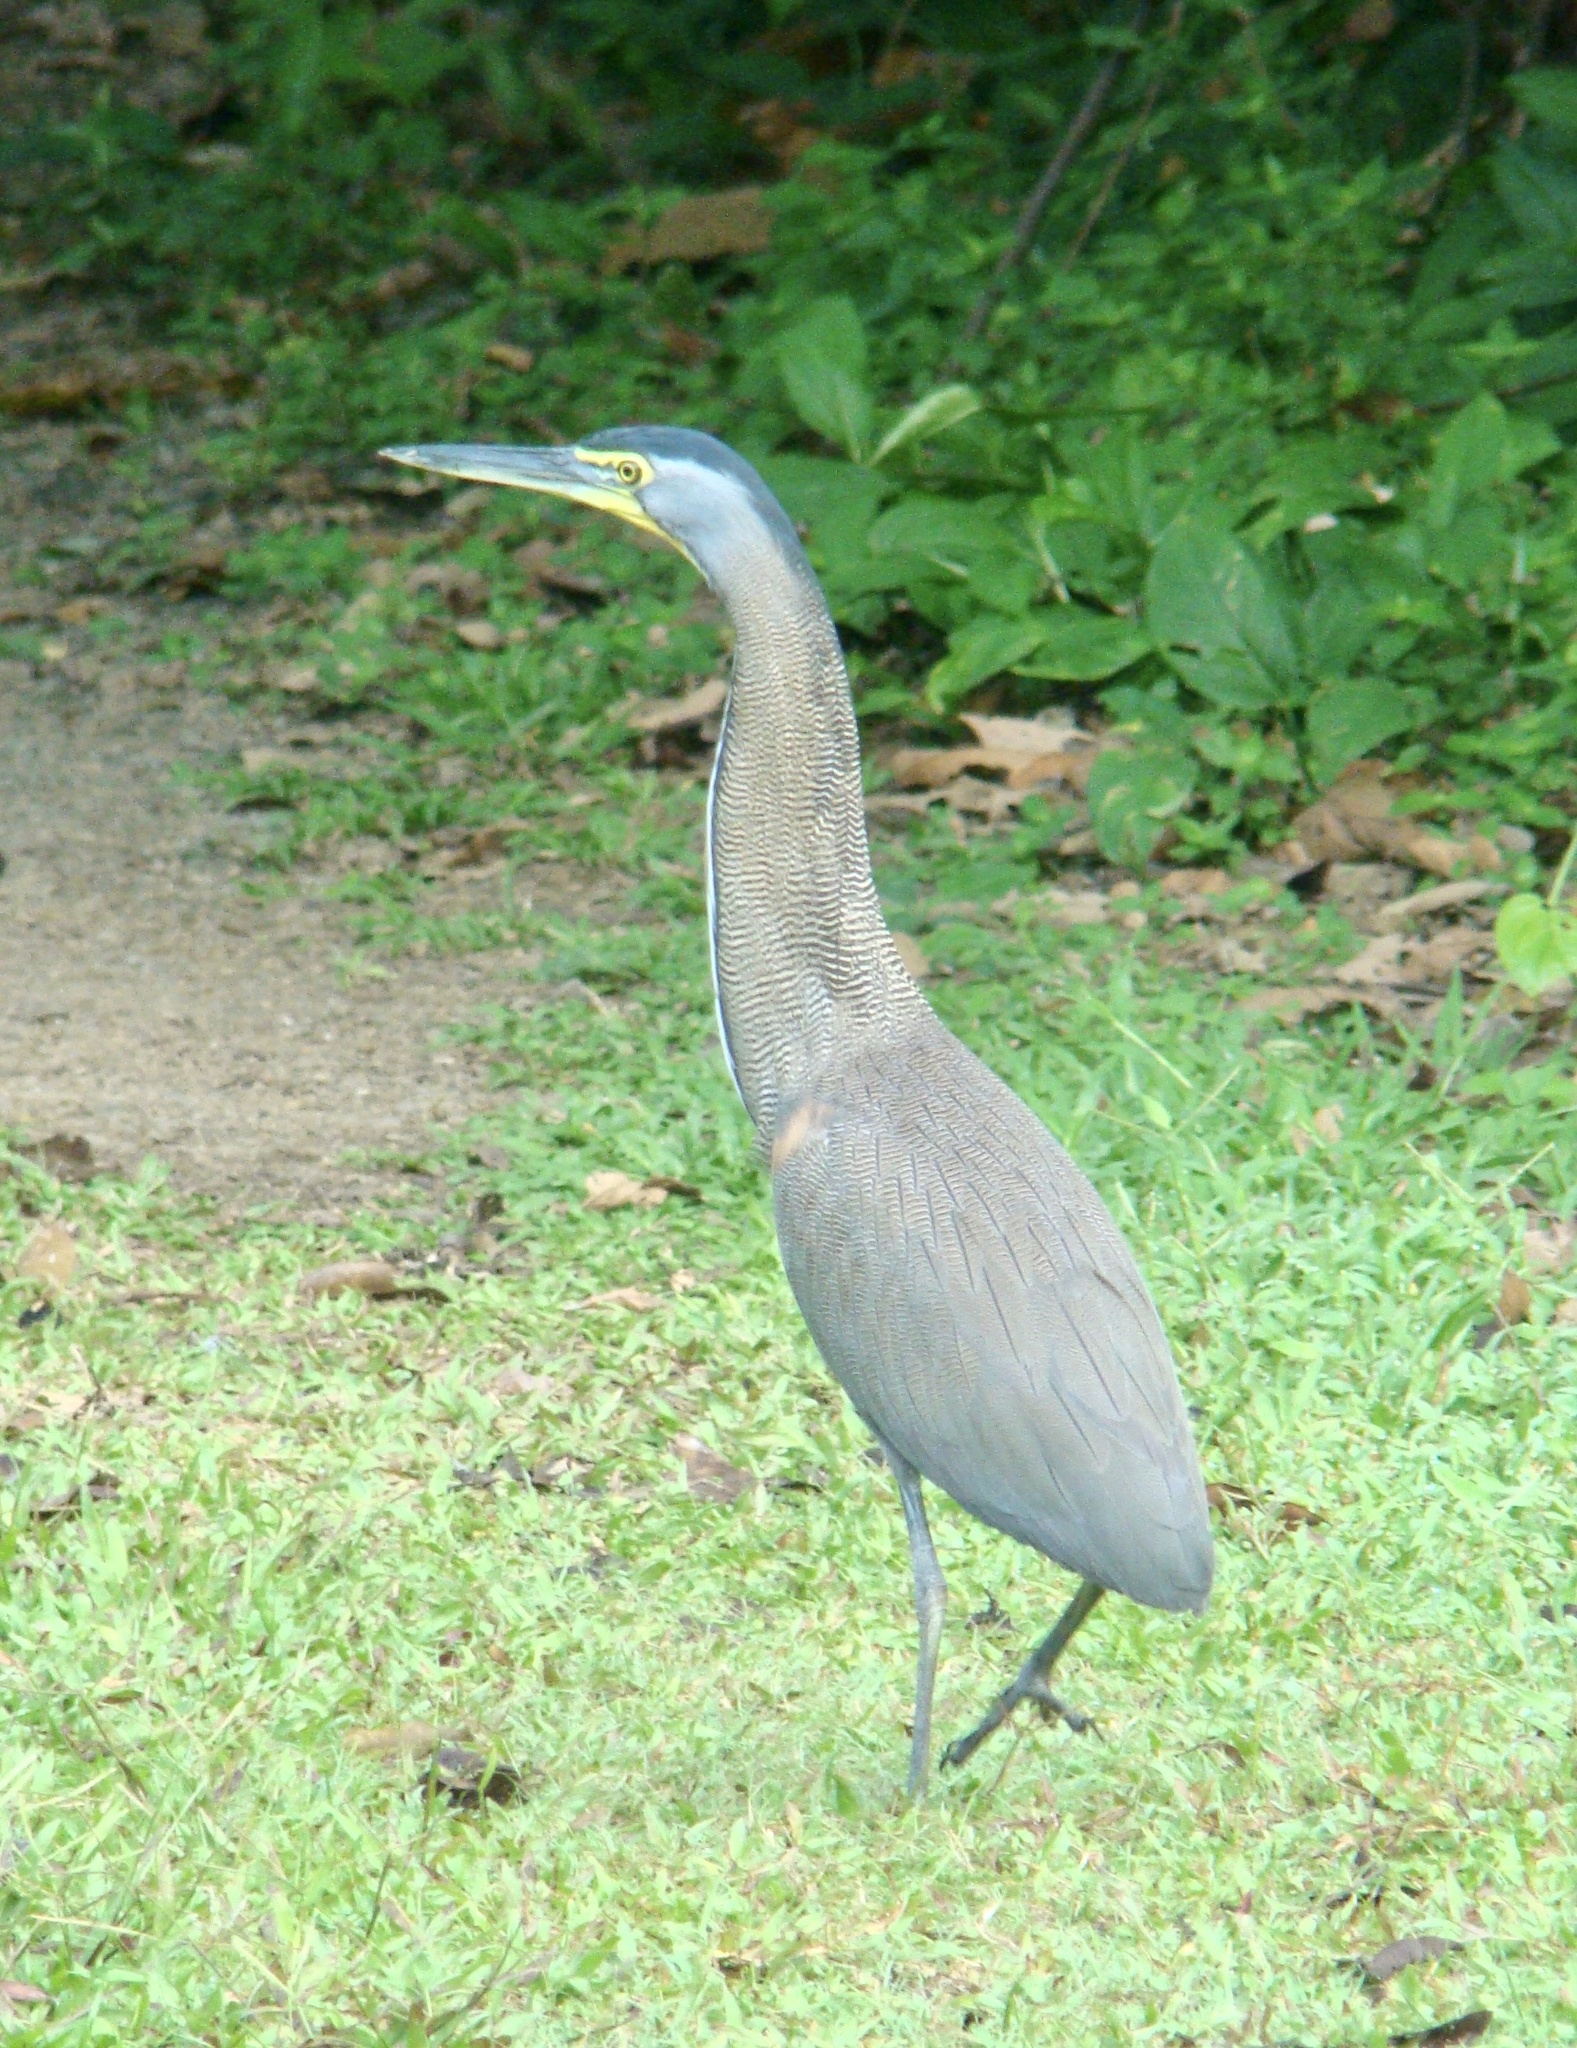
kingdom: Animalia
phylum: Chordata
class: Aves
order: Pelecaniformes
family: Ardeidae
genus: Tigrisoma
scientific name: Tigrisoma mexicanum
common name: Bare-throated tiger-heron
